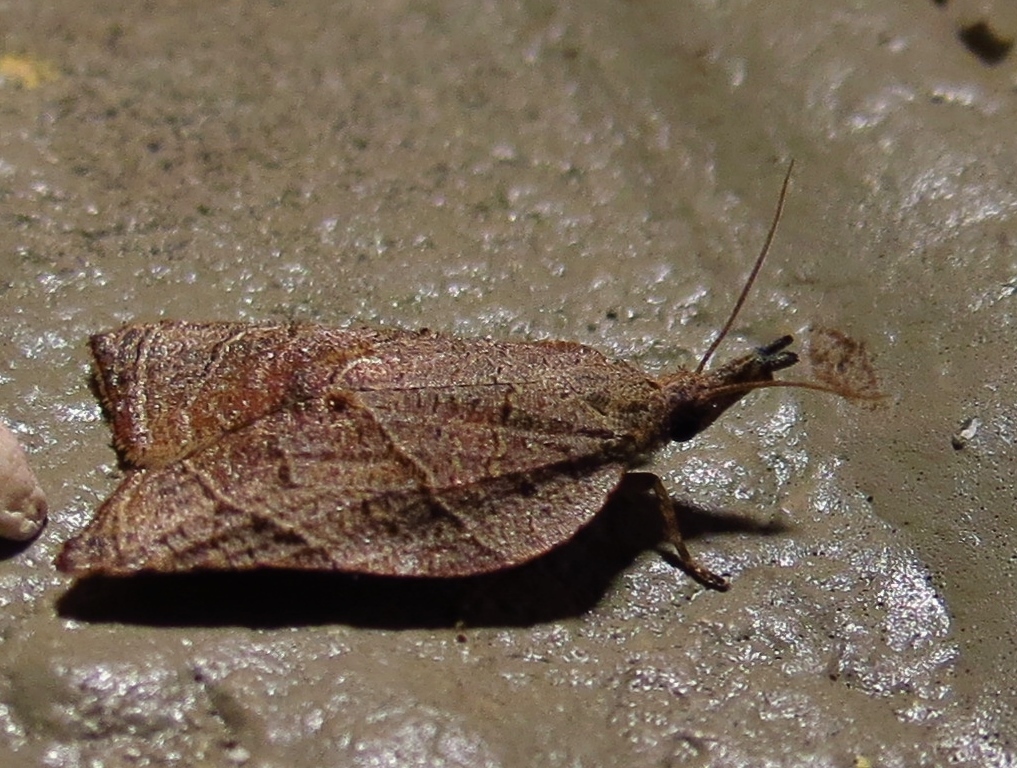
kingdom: Animalia
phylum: Arthropoda
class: Insecta
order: Lepidoptera
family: Tortricidae
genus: Platynota
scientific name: Platynota rostrana
